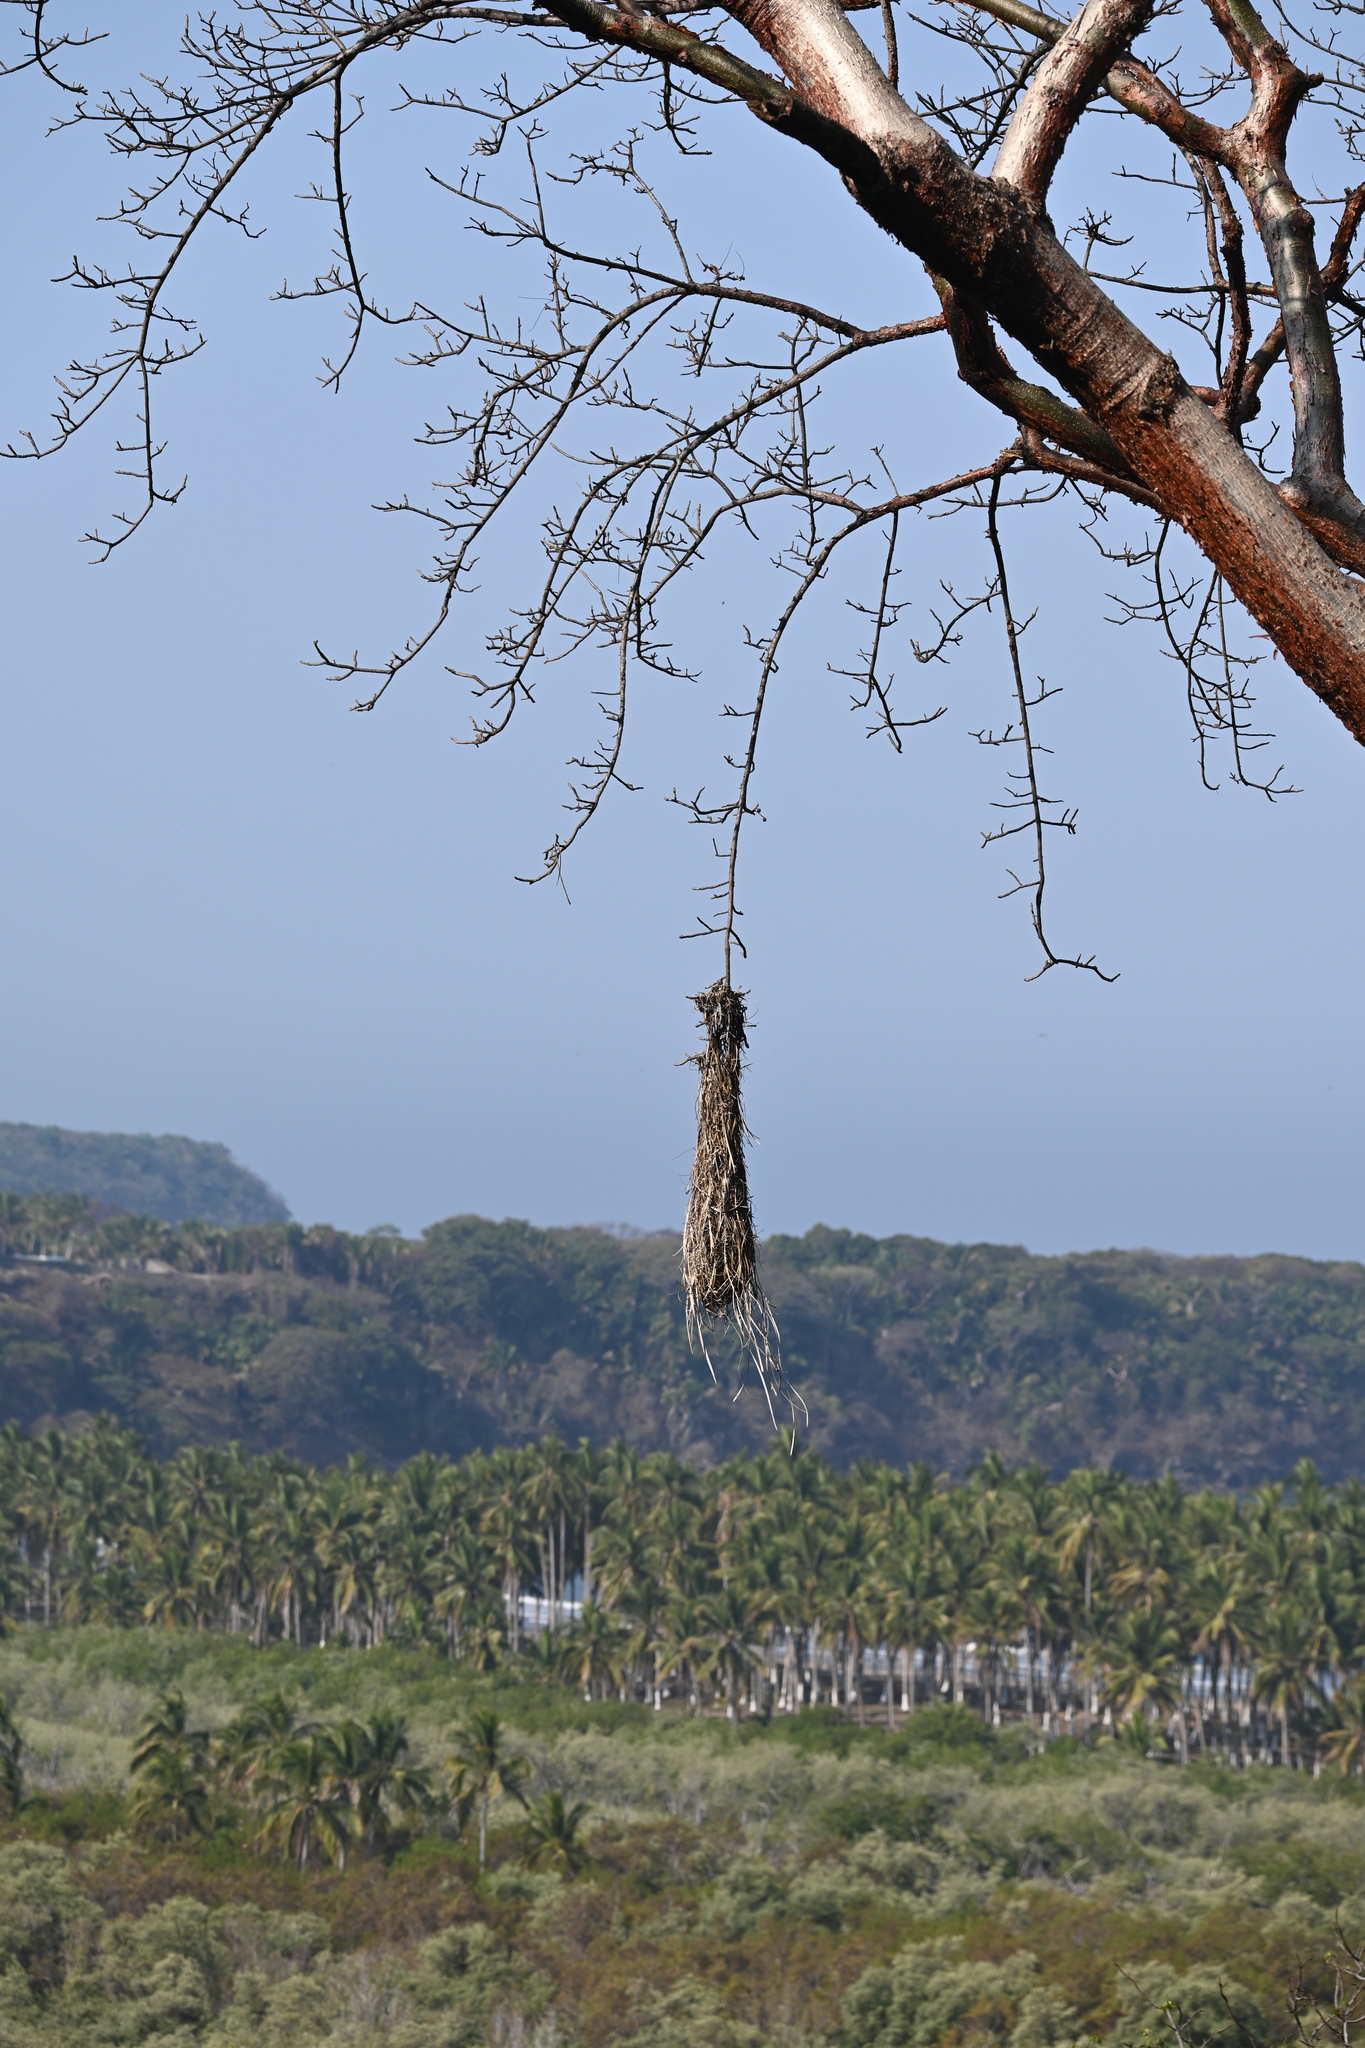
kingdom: Animalia
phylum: Chordata
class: Aves
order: Passeriformes
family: Icteridae
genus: Icterus
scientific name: Icterus wagleri
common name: Black-vented oriole
